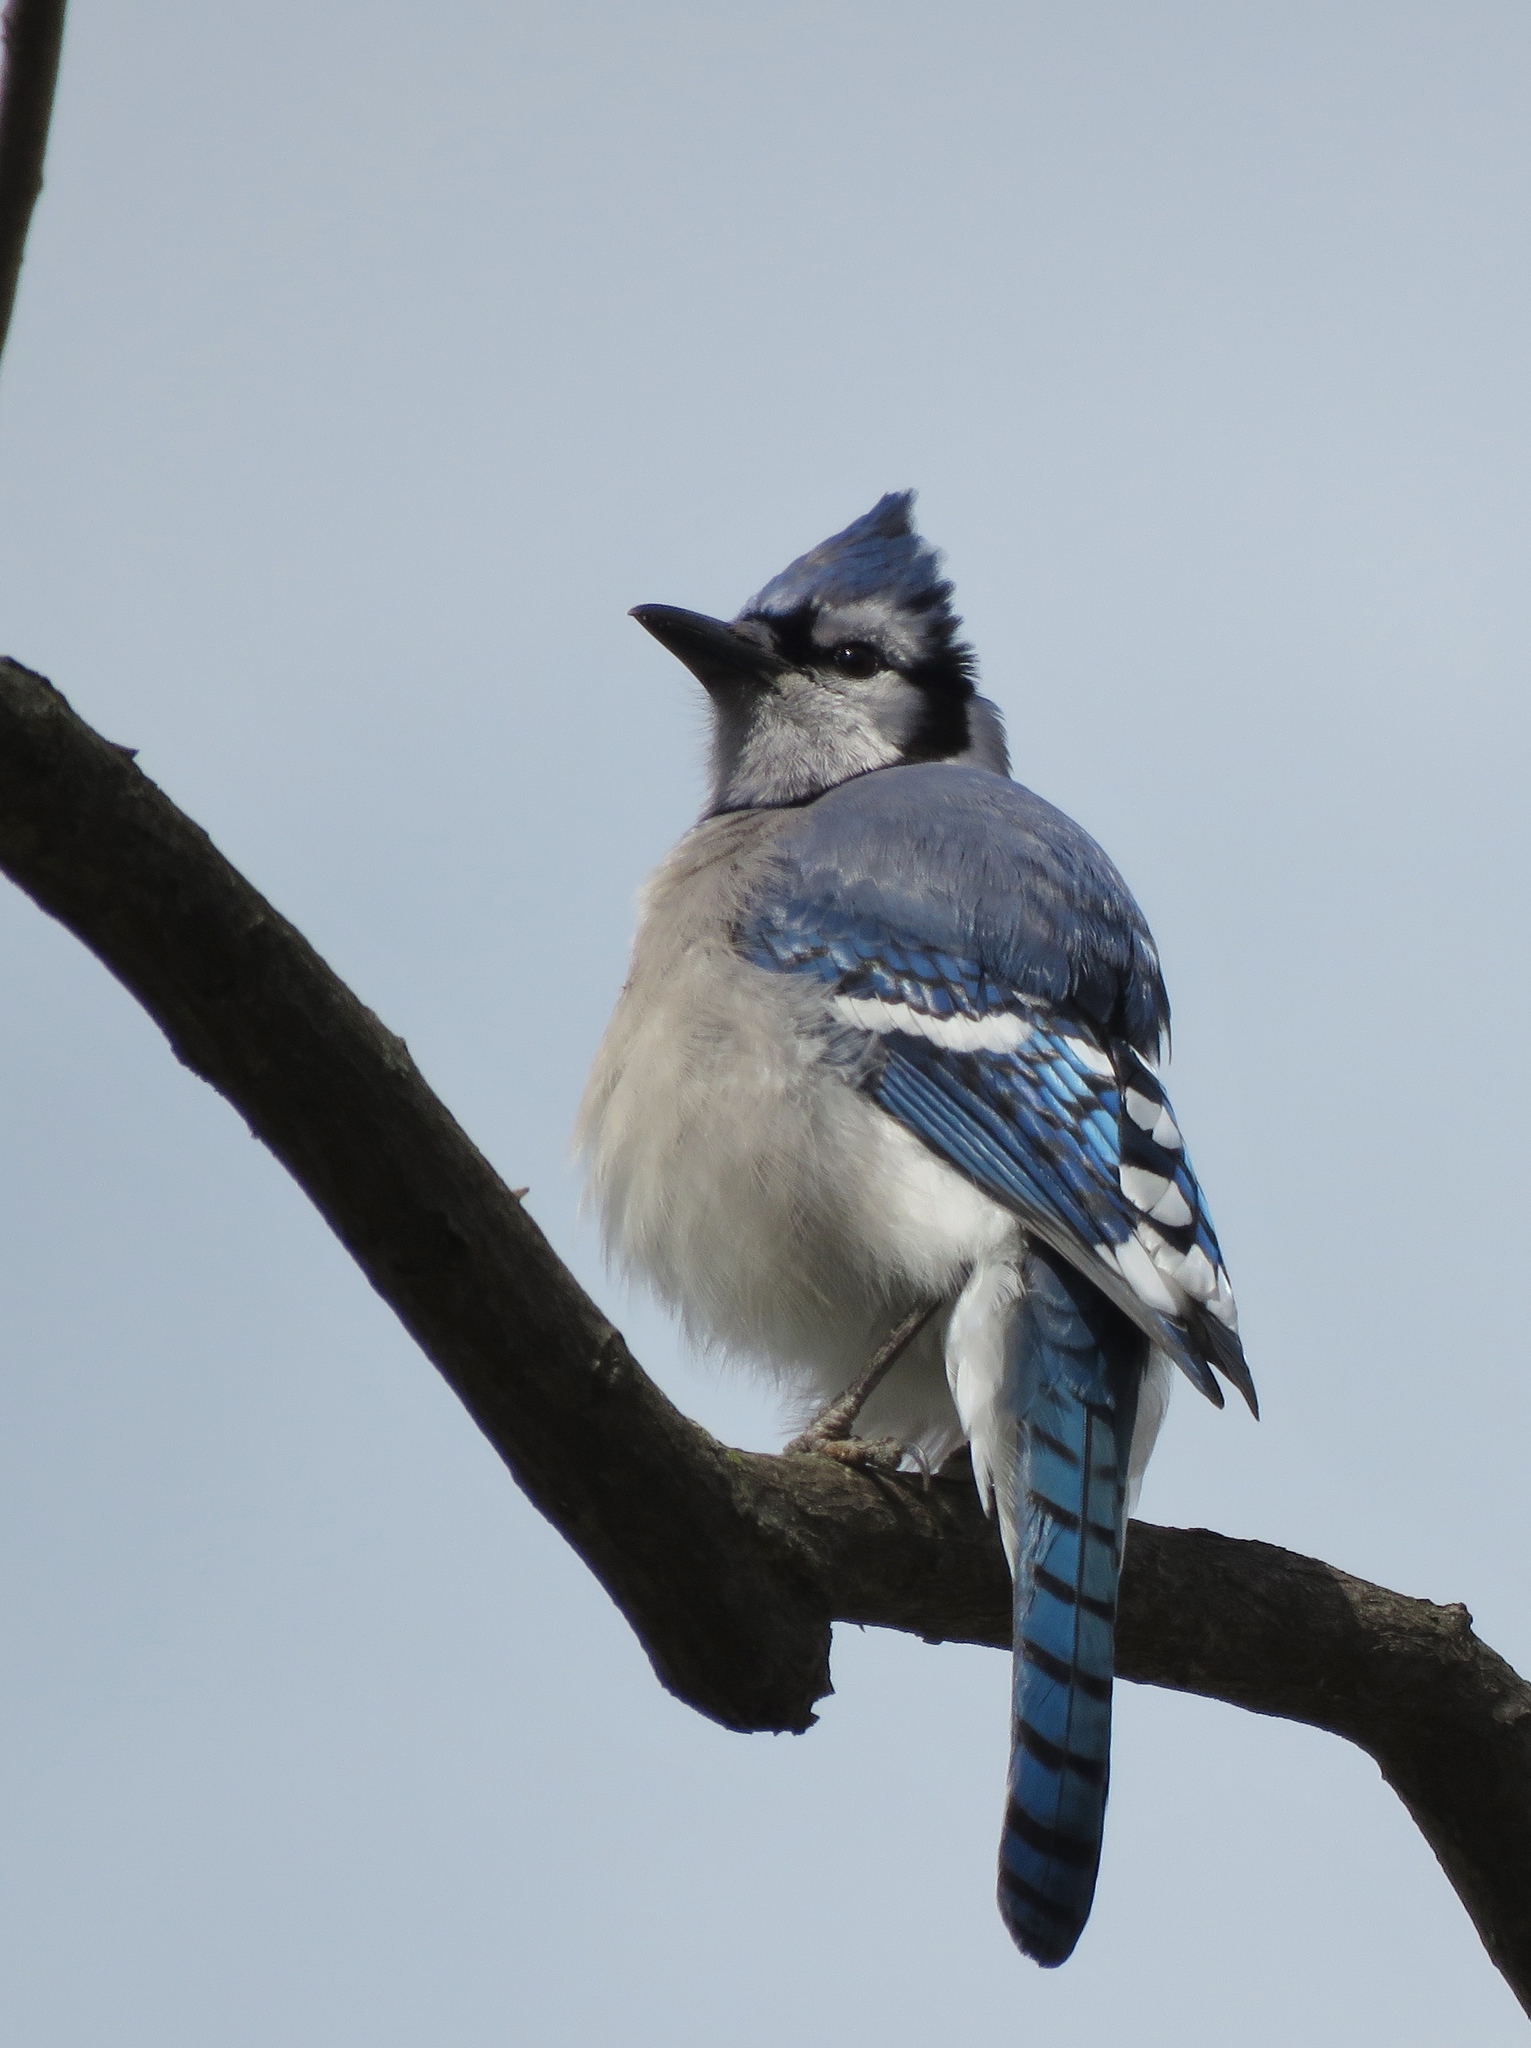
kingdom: Animalia
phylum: Chordata
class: Aves
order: Passeriformes
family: Corvidae
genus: Cyanocitta
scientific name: Cyanocitta cristata
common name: Blue jay
